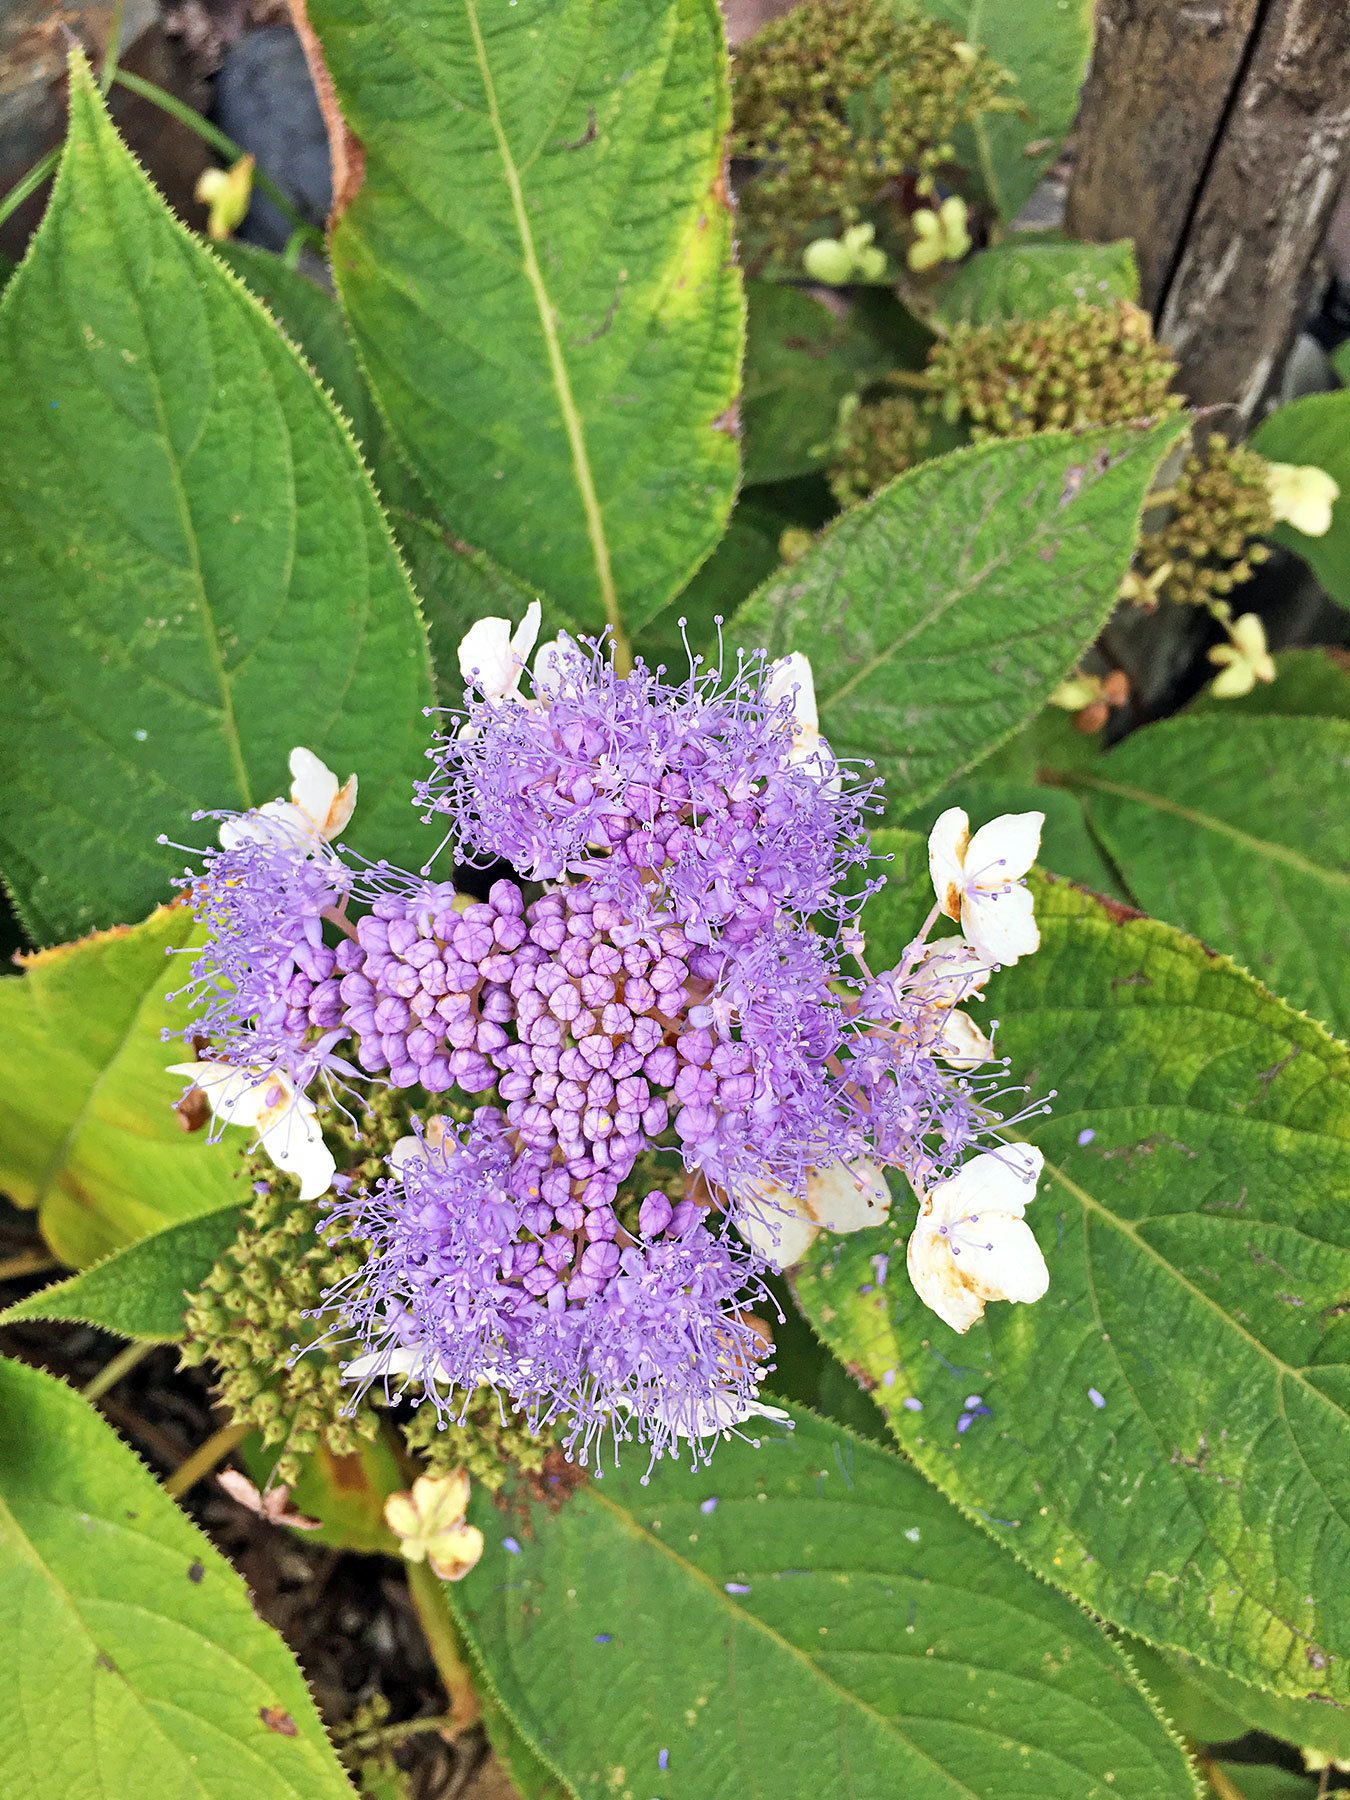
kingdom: Plantae
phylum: Tracheophyta
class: Magnoliopsida
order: Cornales
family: Hydrangeaceae
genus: Hydrangea
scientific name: Hydrangea involucrata
